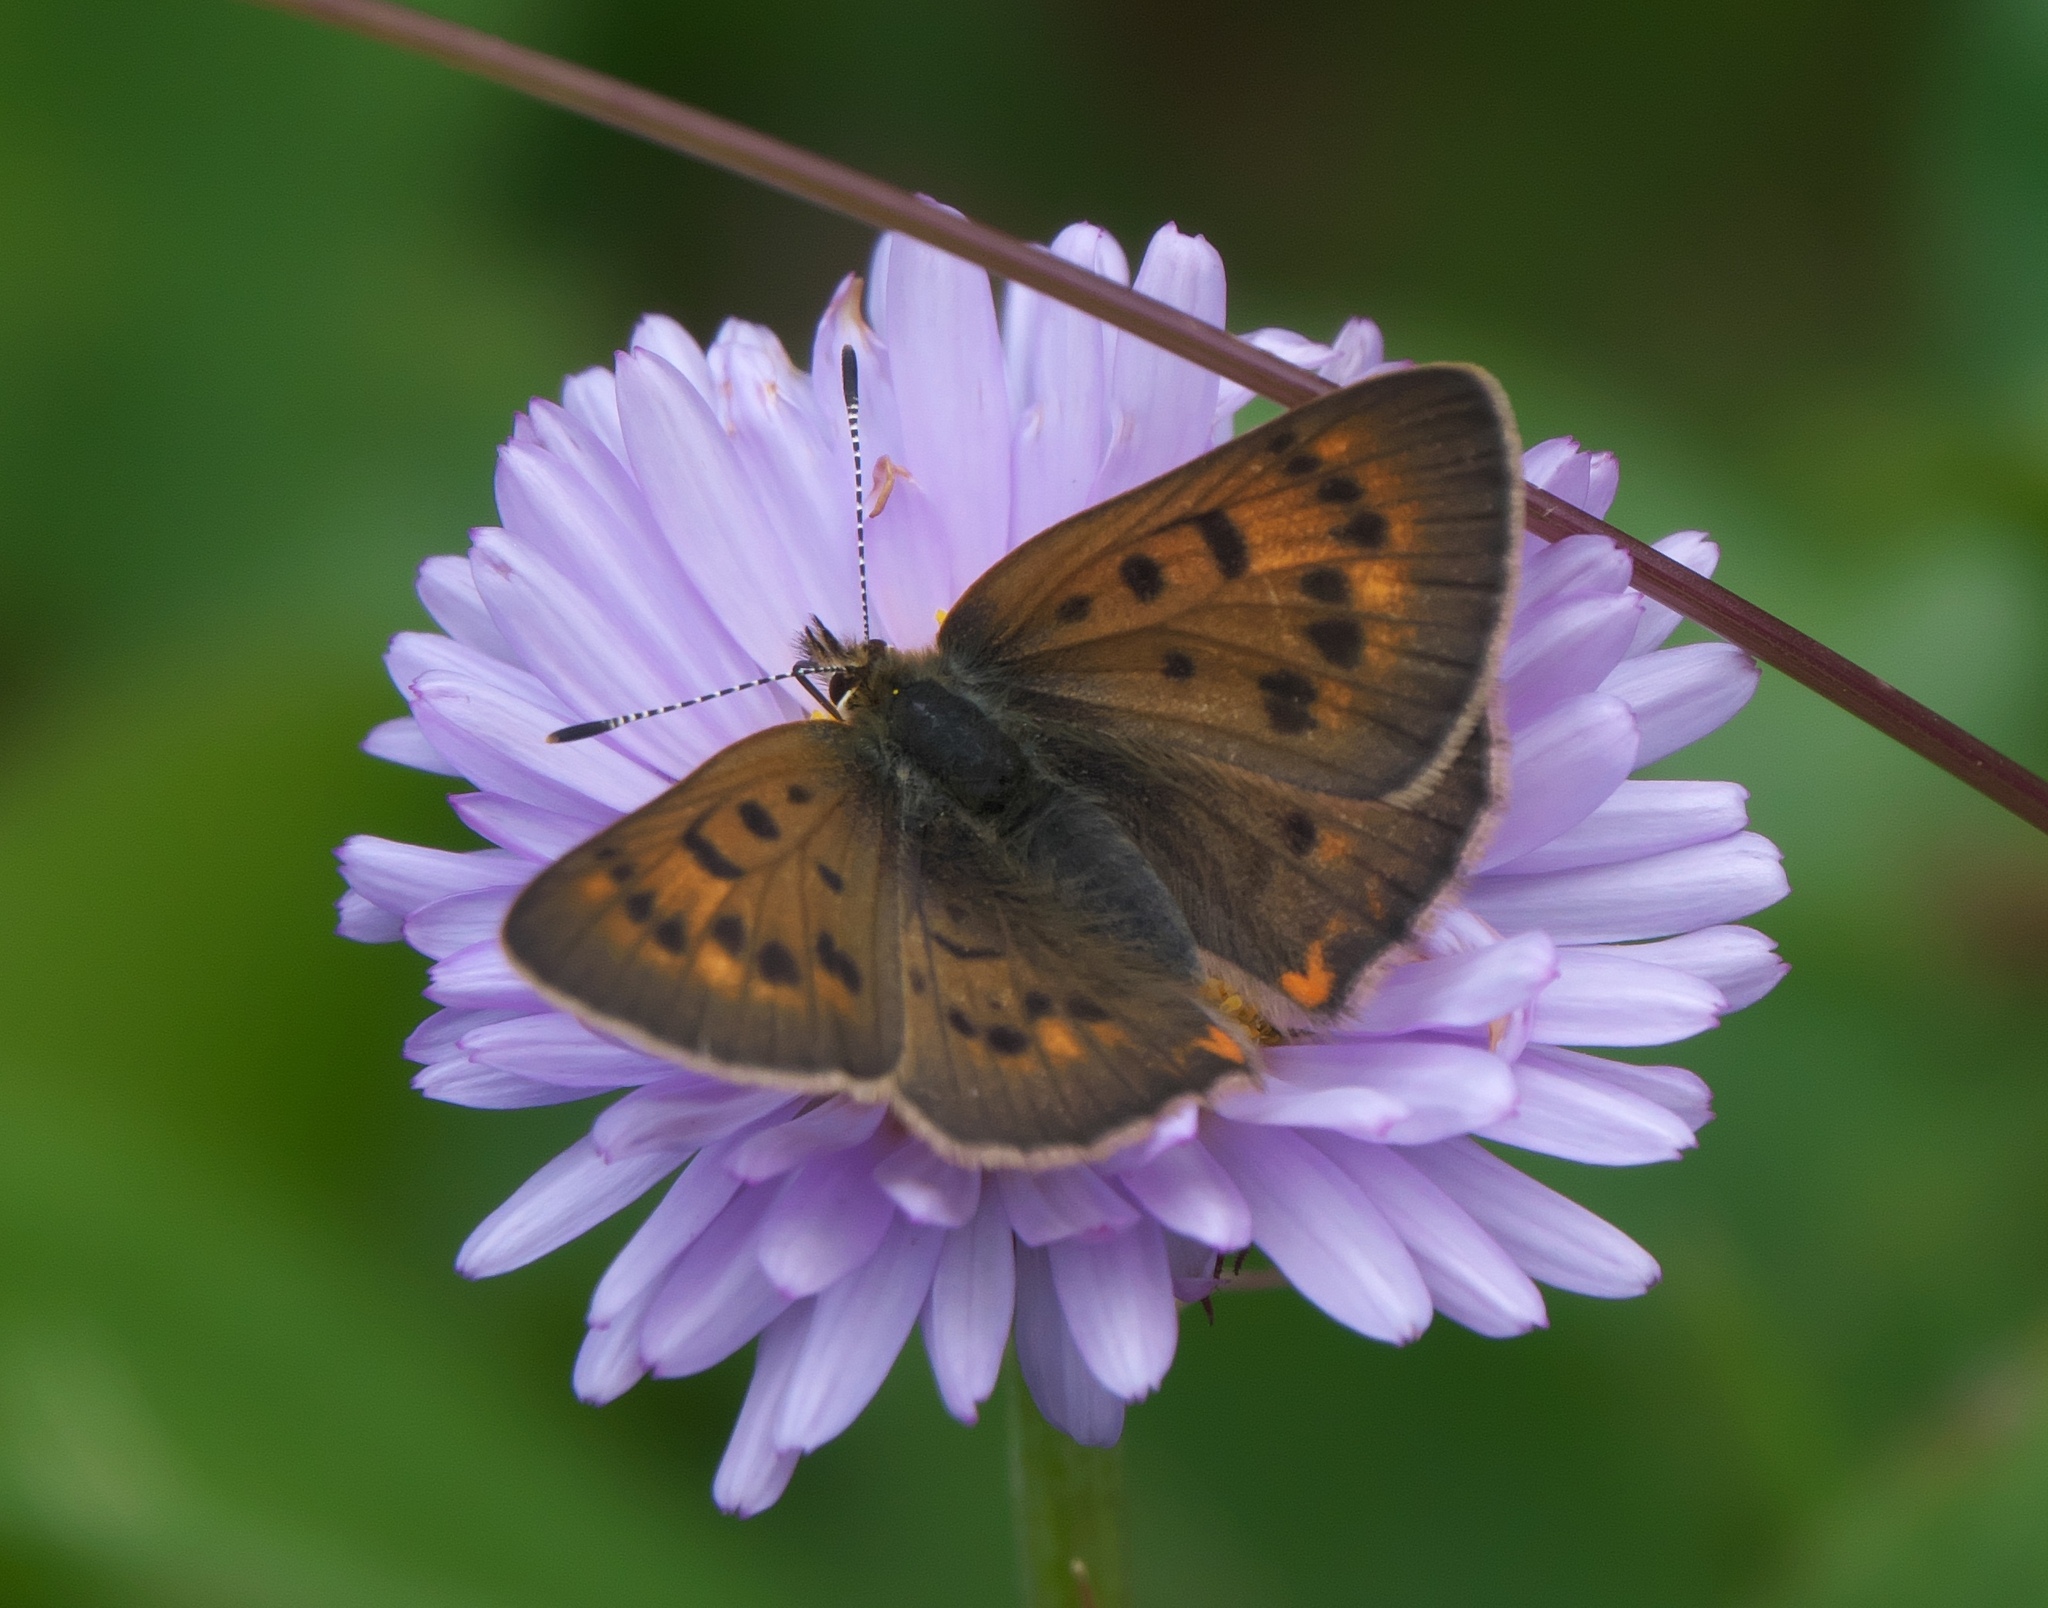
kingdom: Animalia
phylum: Arthropoda
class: Insecta
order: Lepidoptera
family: Lycaenidae
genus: Tharsalea
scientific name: Tharsalea dorcas
